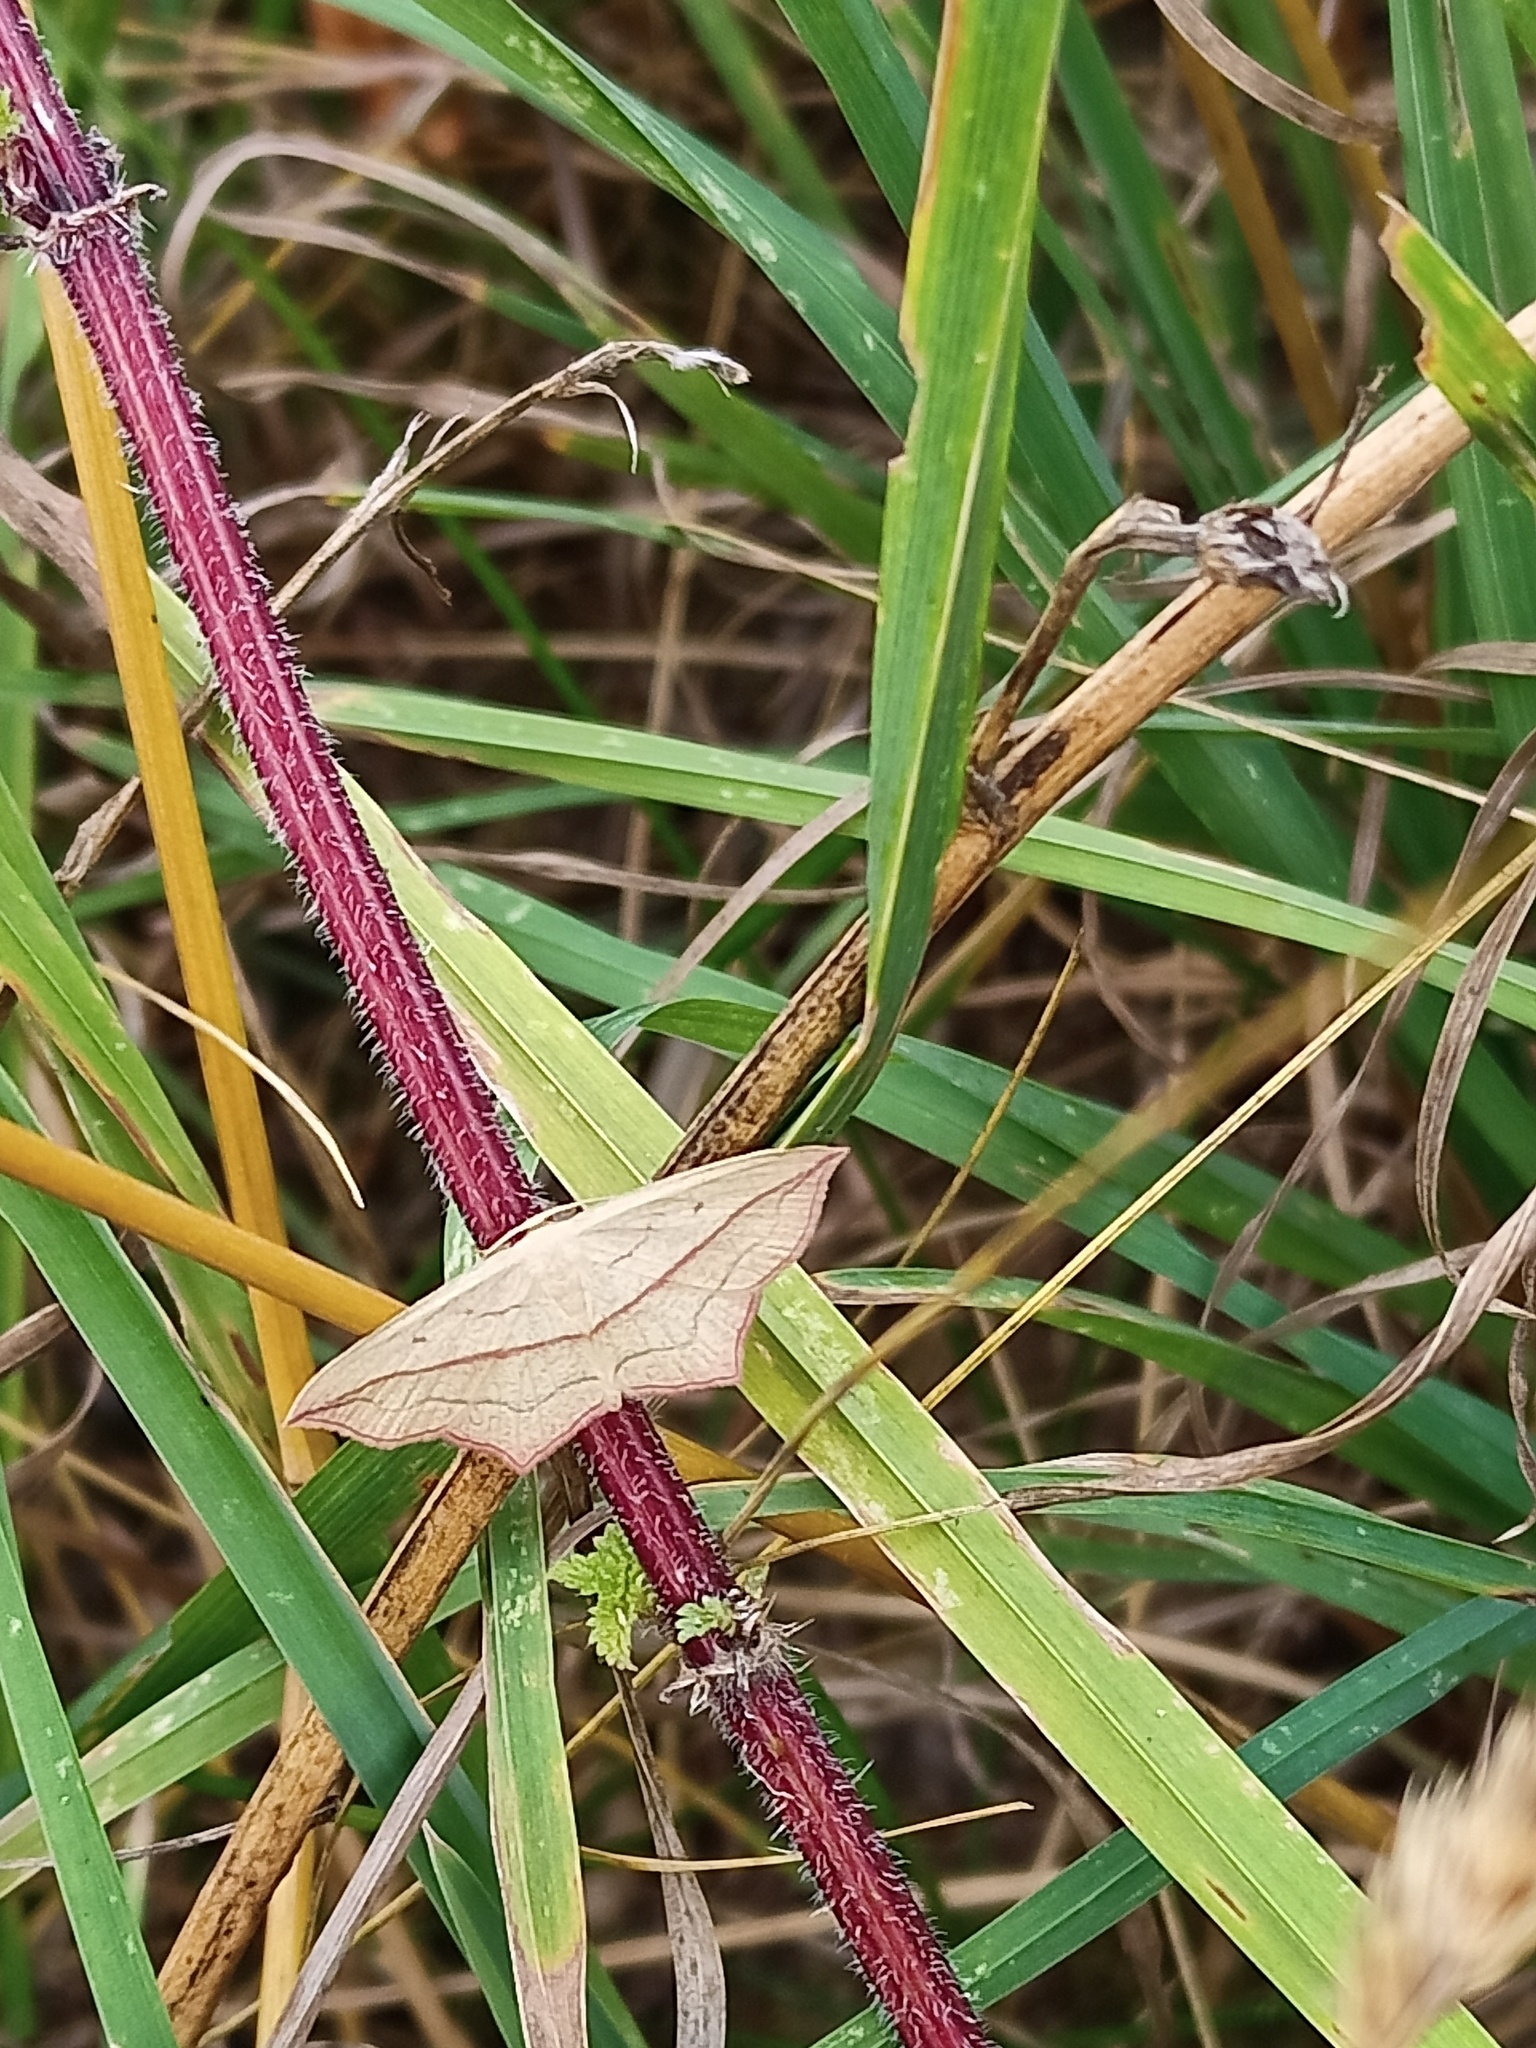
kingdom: Animalia
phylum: Arthropoda
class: Insecta
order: Lepidoptera
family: Geometridae
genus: Timandra
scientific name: Timandra comae
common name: Blood-vein
